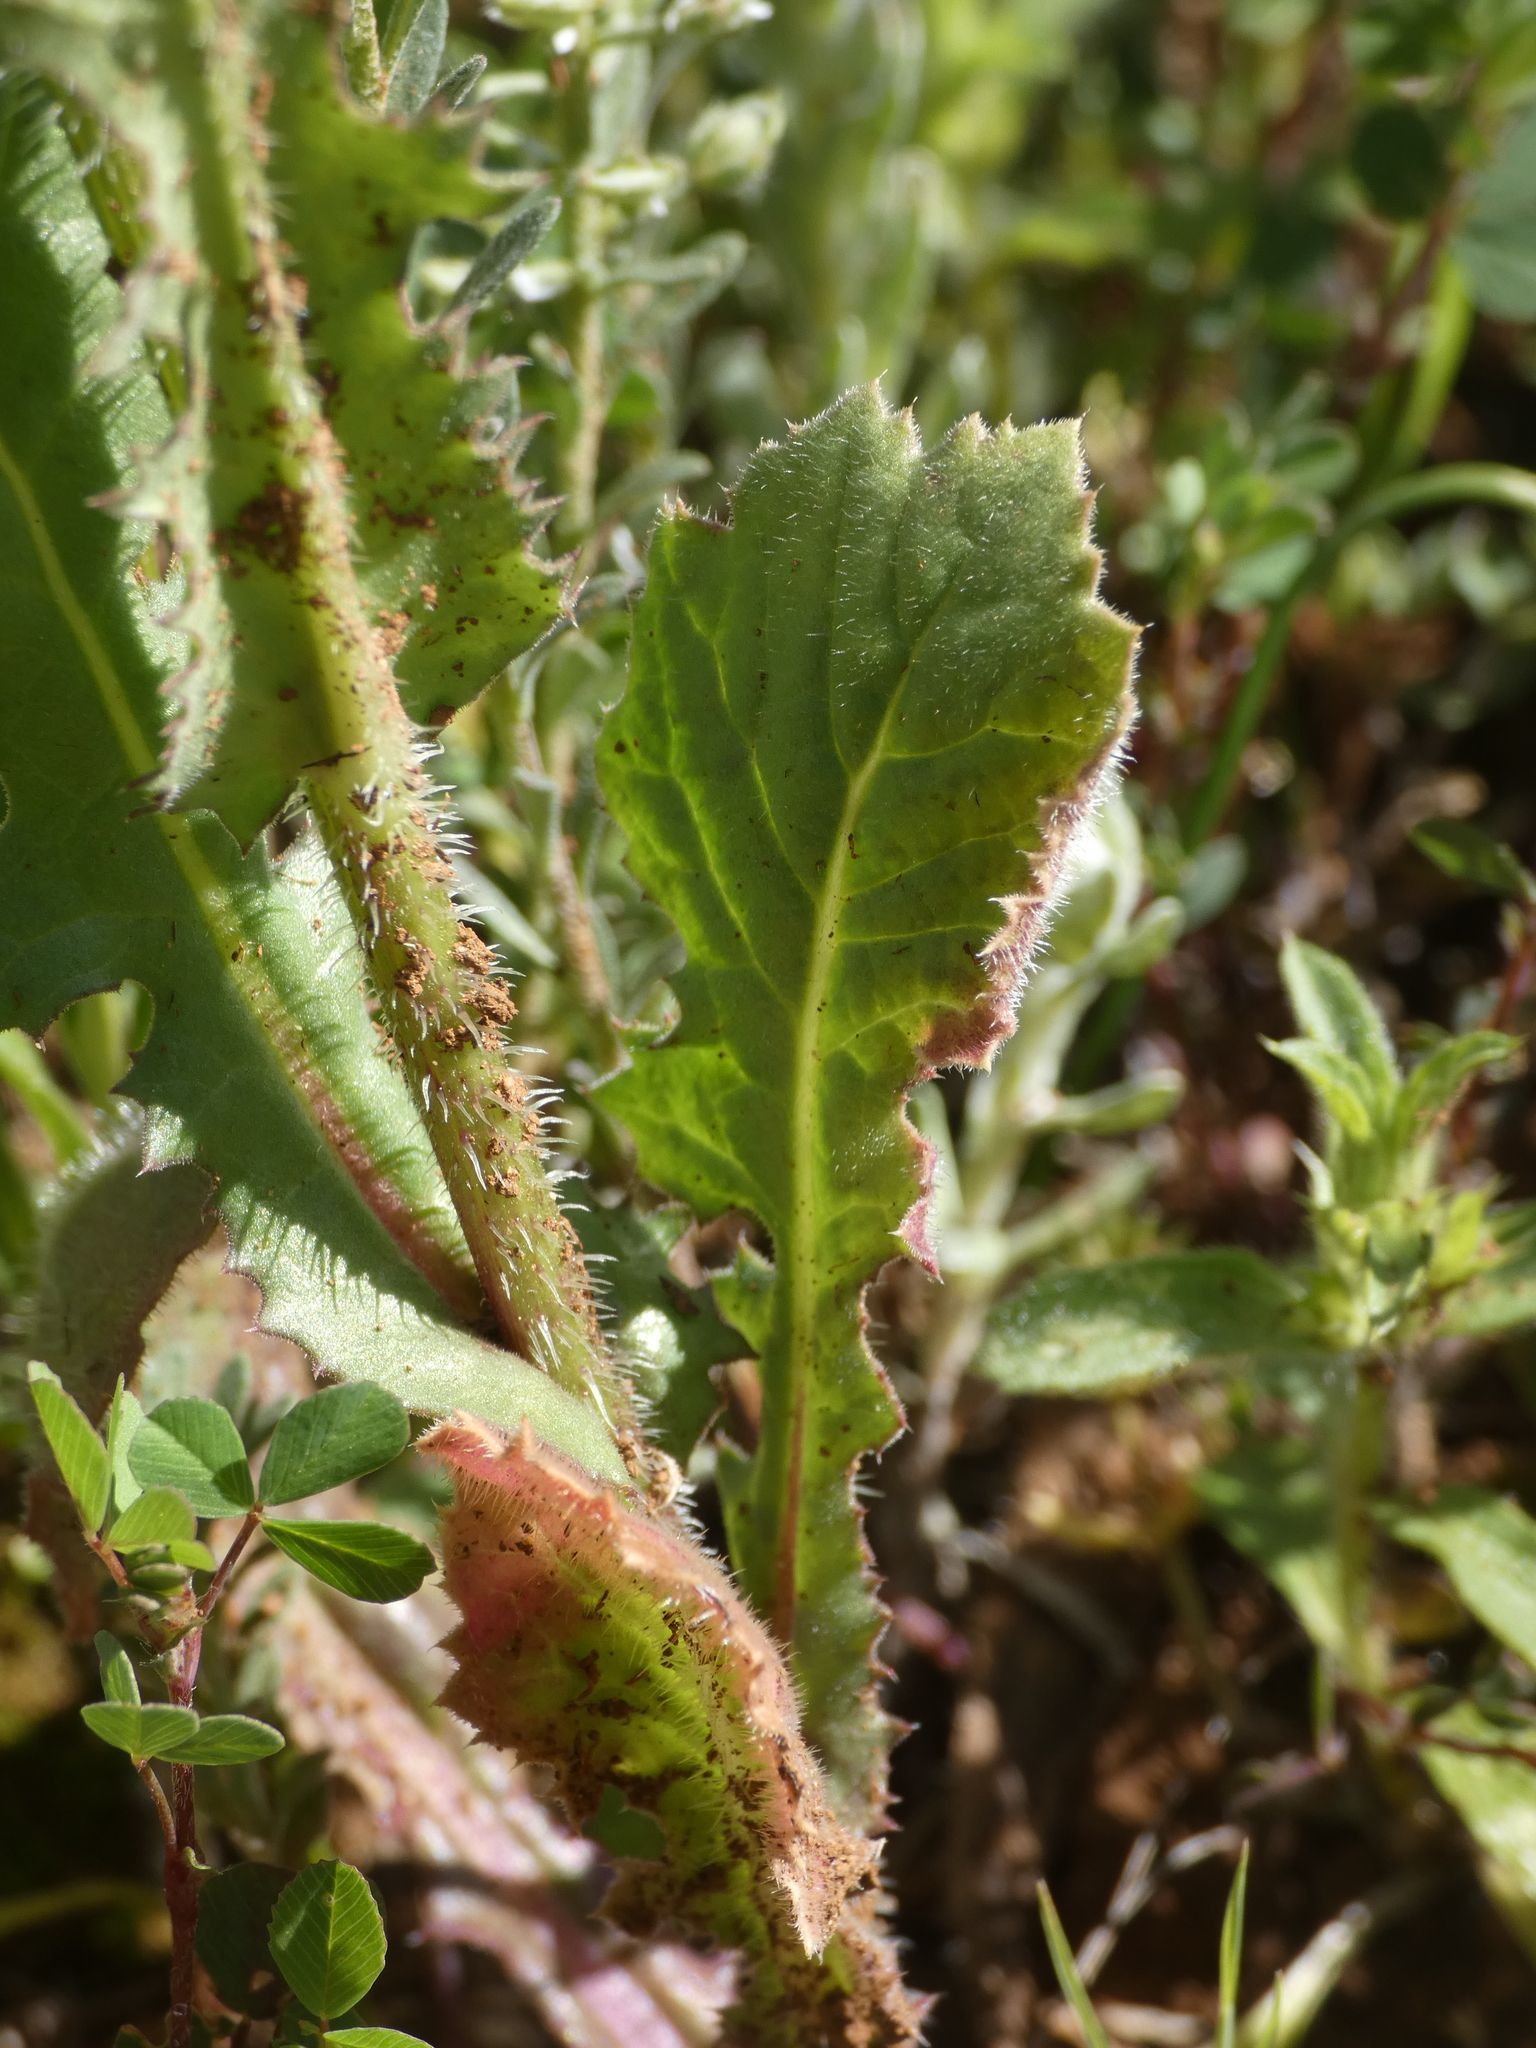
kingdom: Plantae
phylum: Tracheophyta
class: Magnoliopsida
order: Asterales
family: Asteraceae
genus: Urospermum
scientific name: Urospermum picroides
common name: False hawkbit
